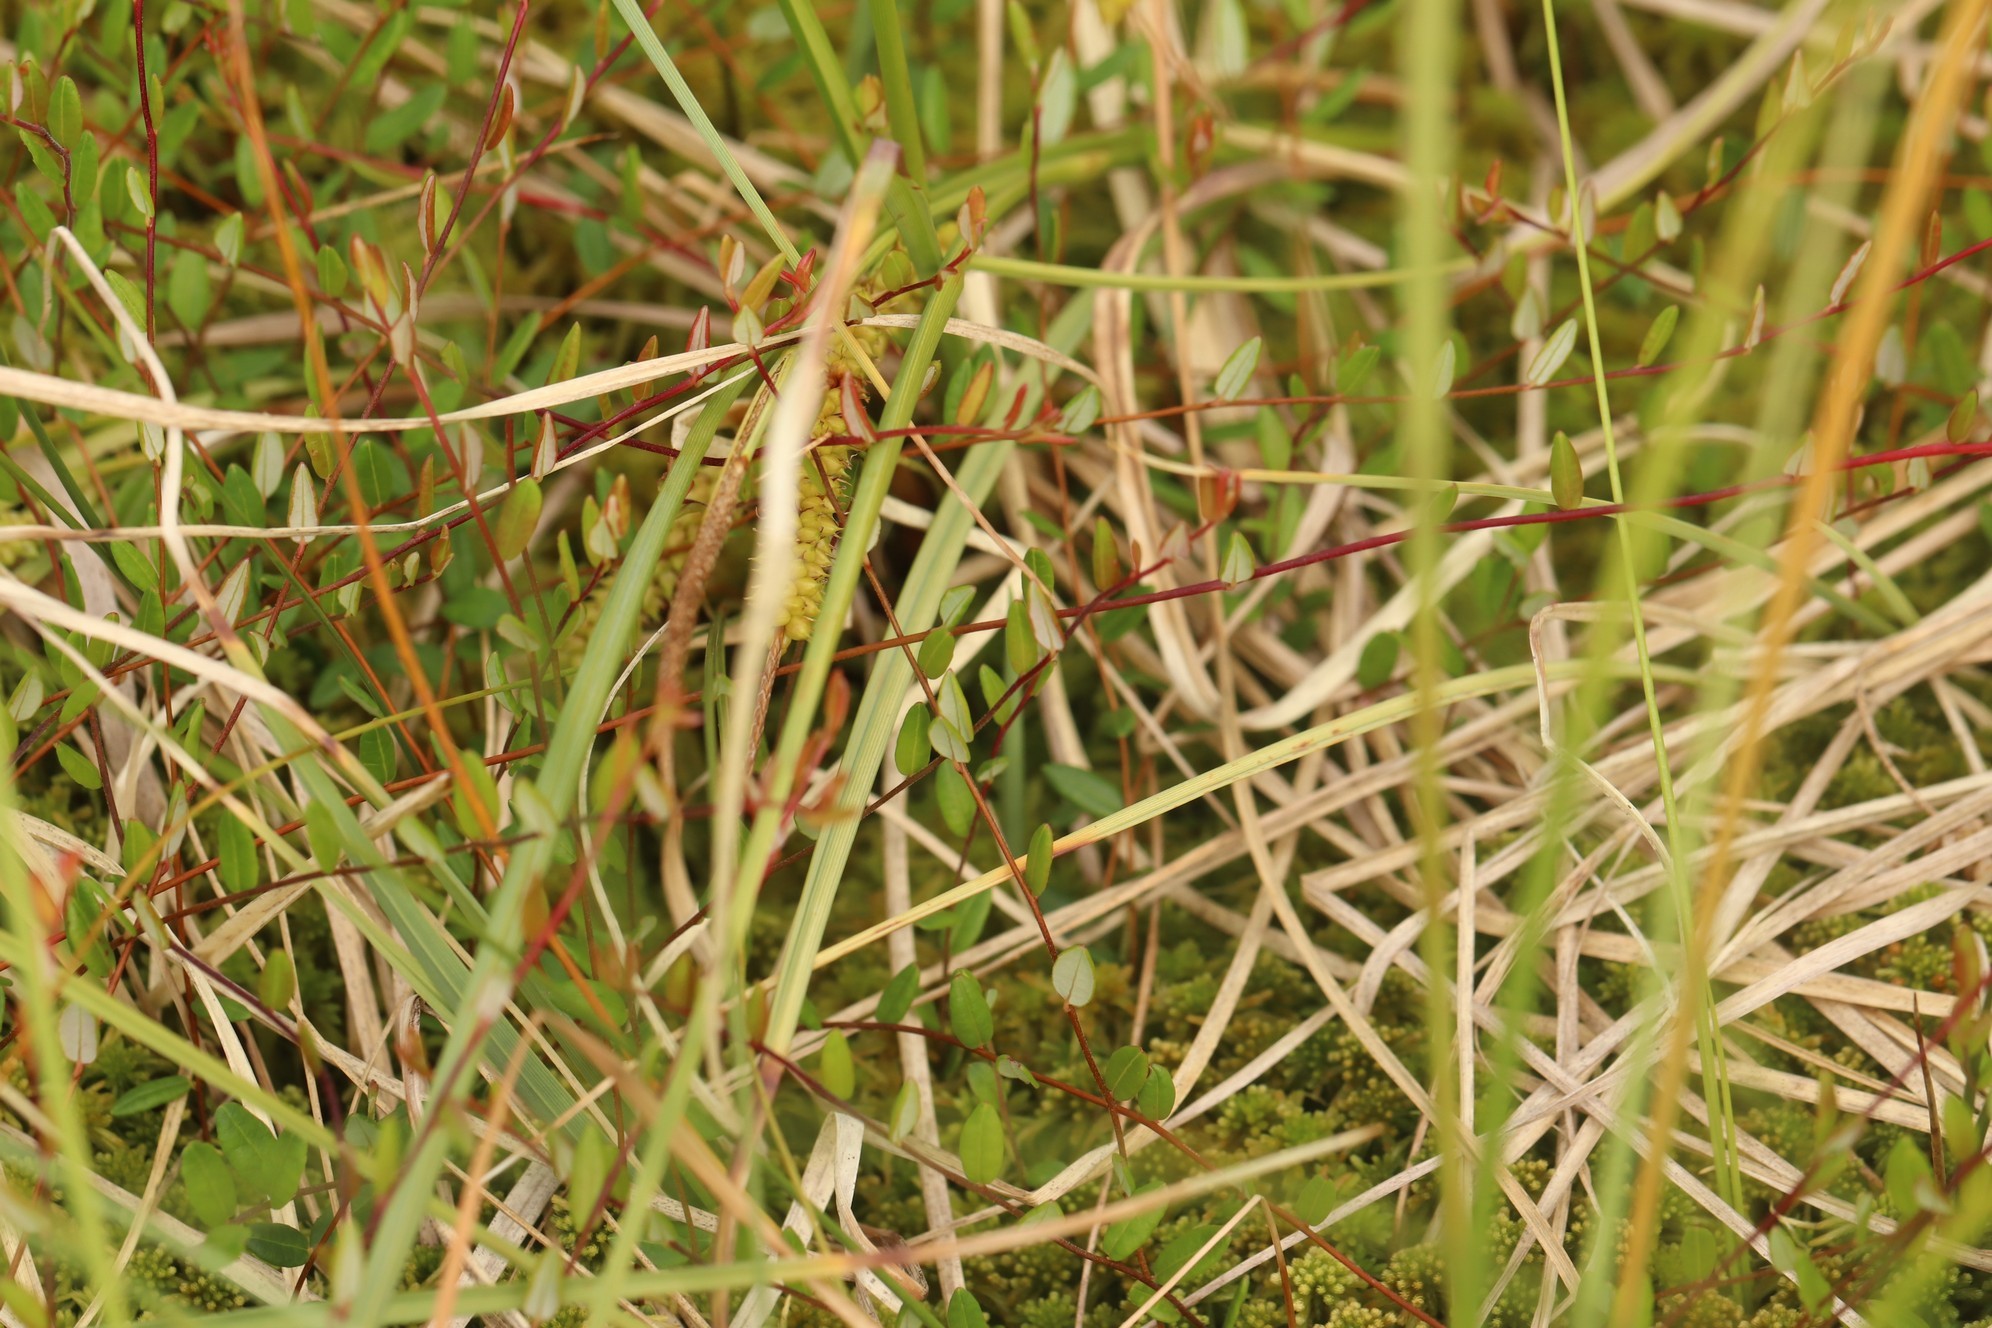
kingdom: Plantae
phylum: Tracheophyta
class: Magnoliopsida
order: Ericales
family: Ericaceae
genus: Vaccinium
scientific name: Vaccinium oxycoccos
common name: Cranberry
